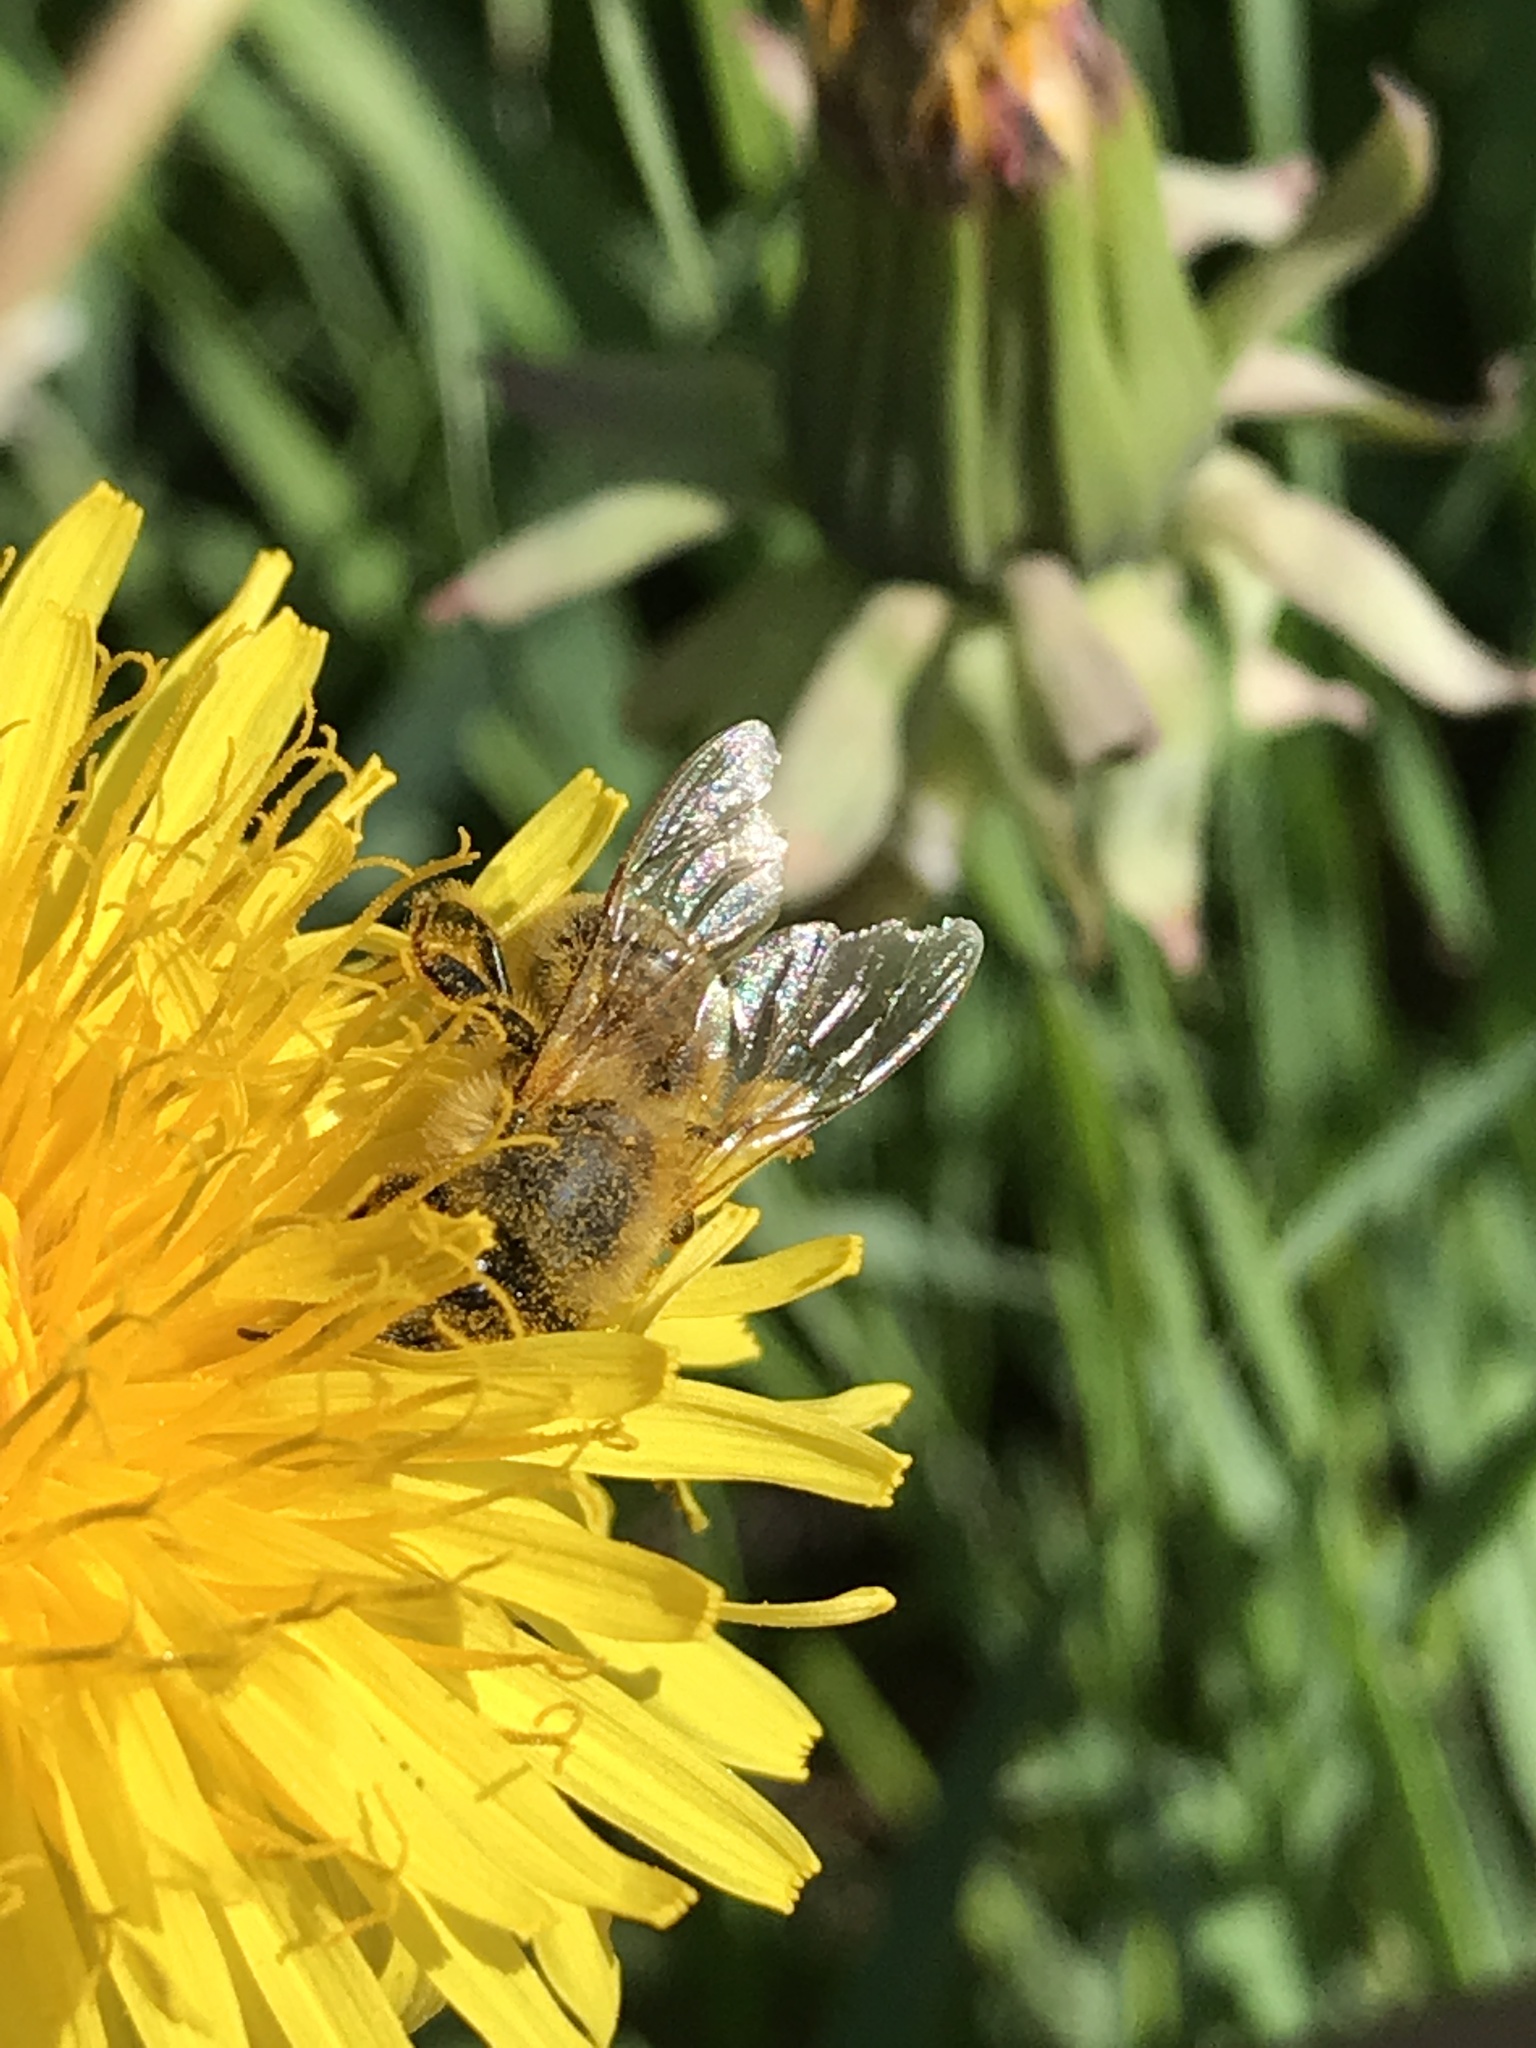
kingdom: Animalia
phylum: Arthropoda
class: Insecta
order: Hymenoptera
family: Apidae
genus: Apis
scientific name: Apis mellifera
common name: Honey bee
